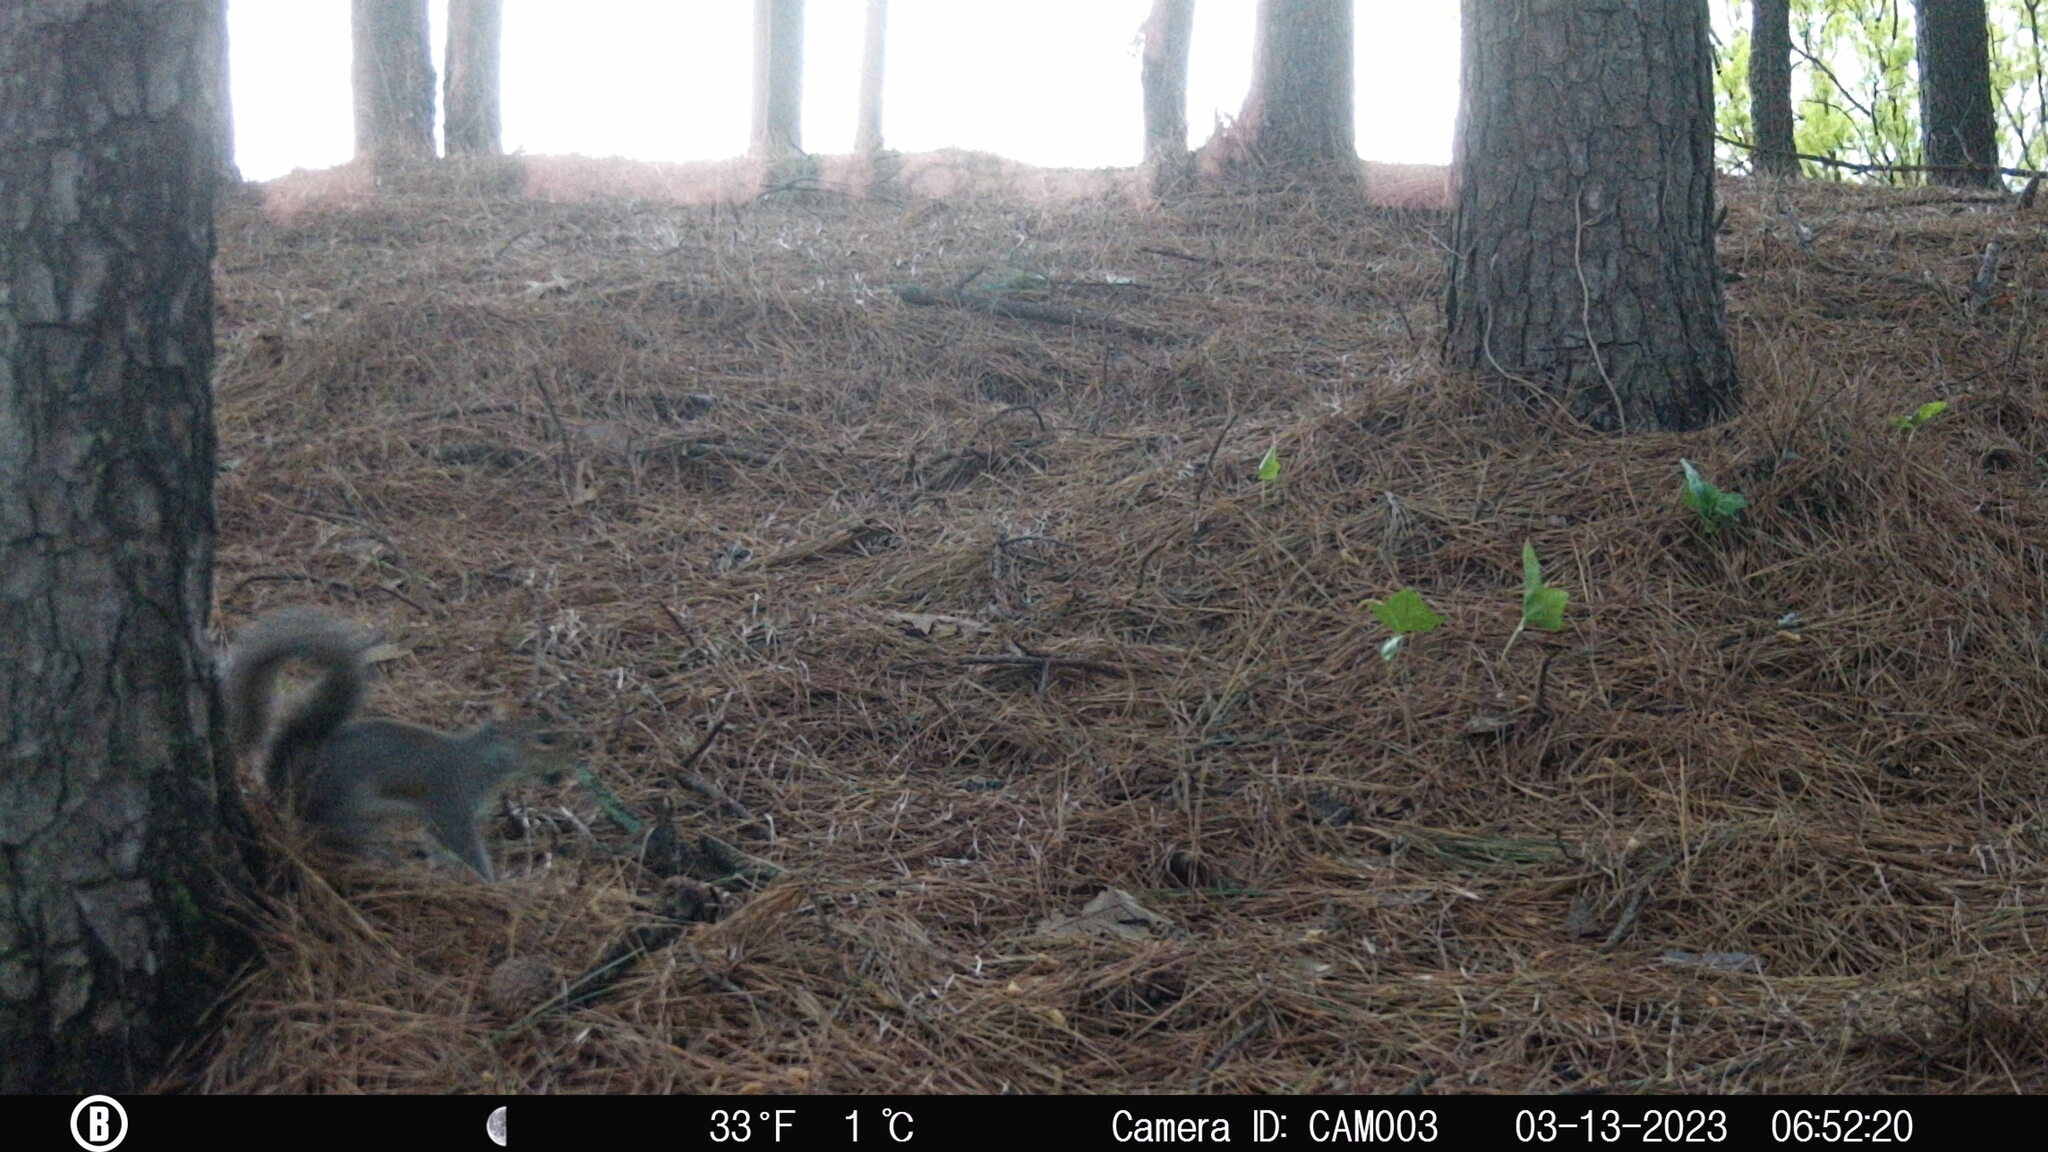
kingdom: Animalia
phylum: Chordata
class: Mammalia
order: Rodentia
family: Sciuridae
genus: Sciurus
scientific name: Sciurus carolinensis
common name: Eastern gray squirrel
